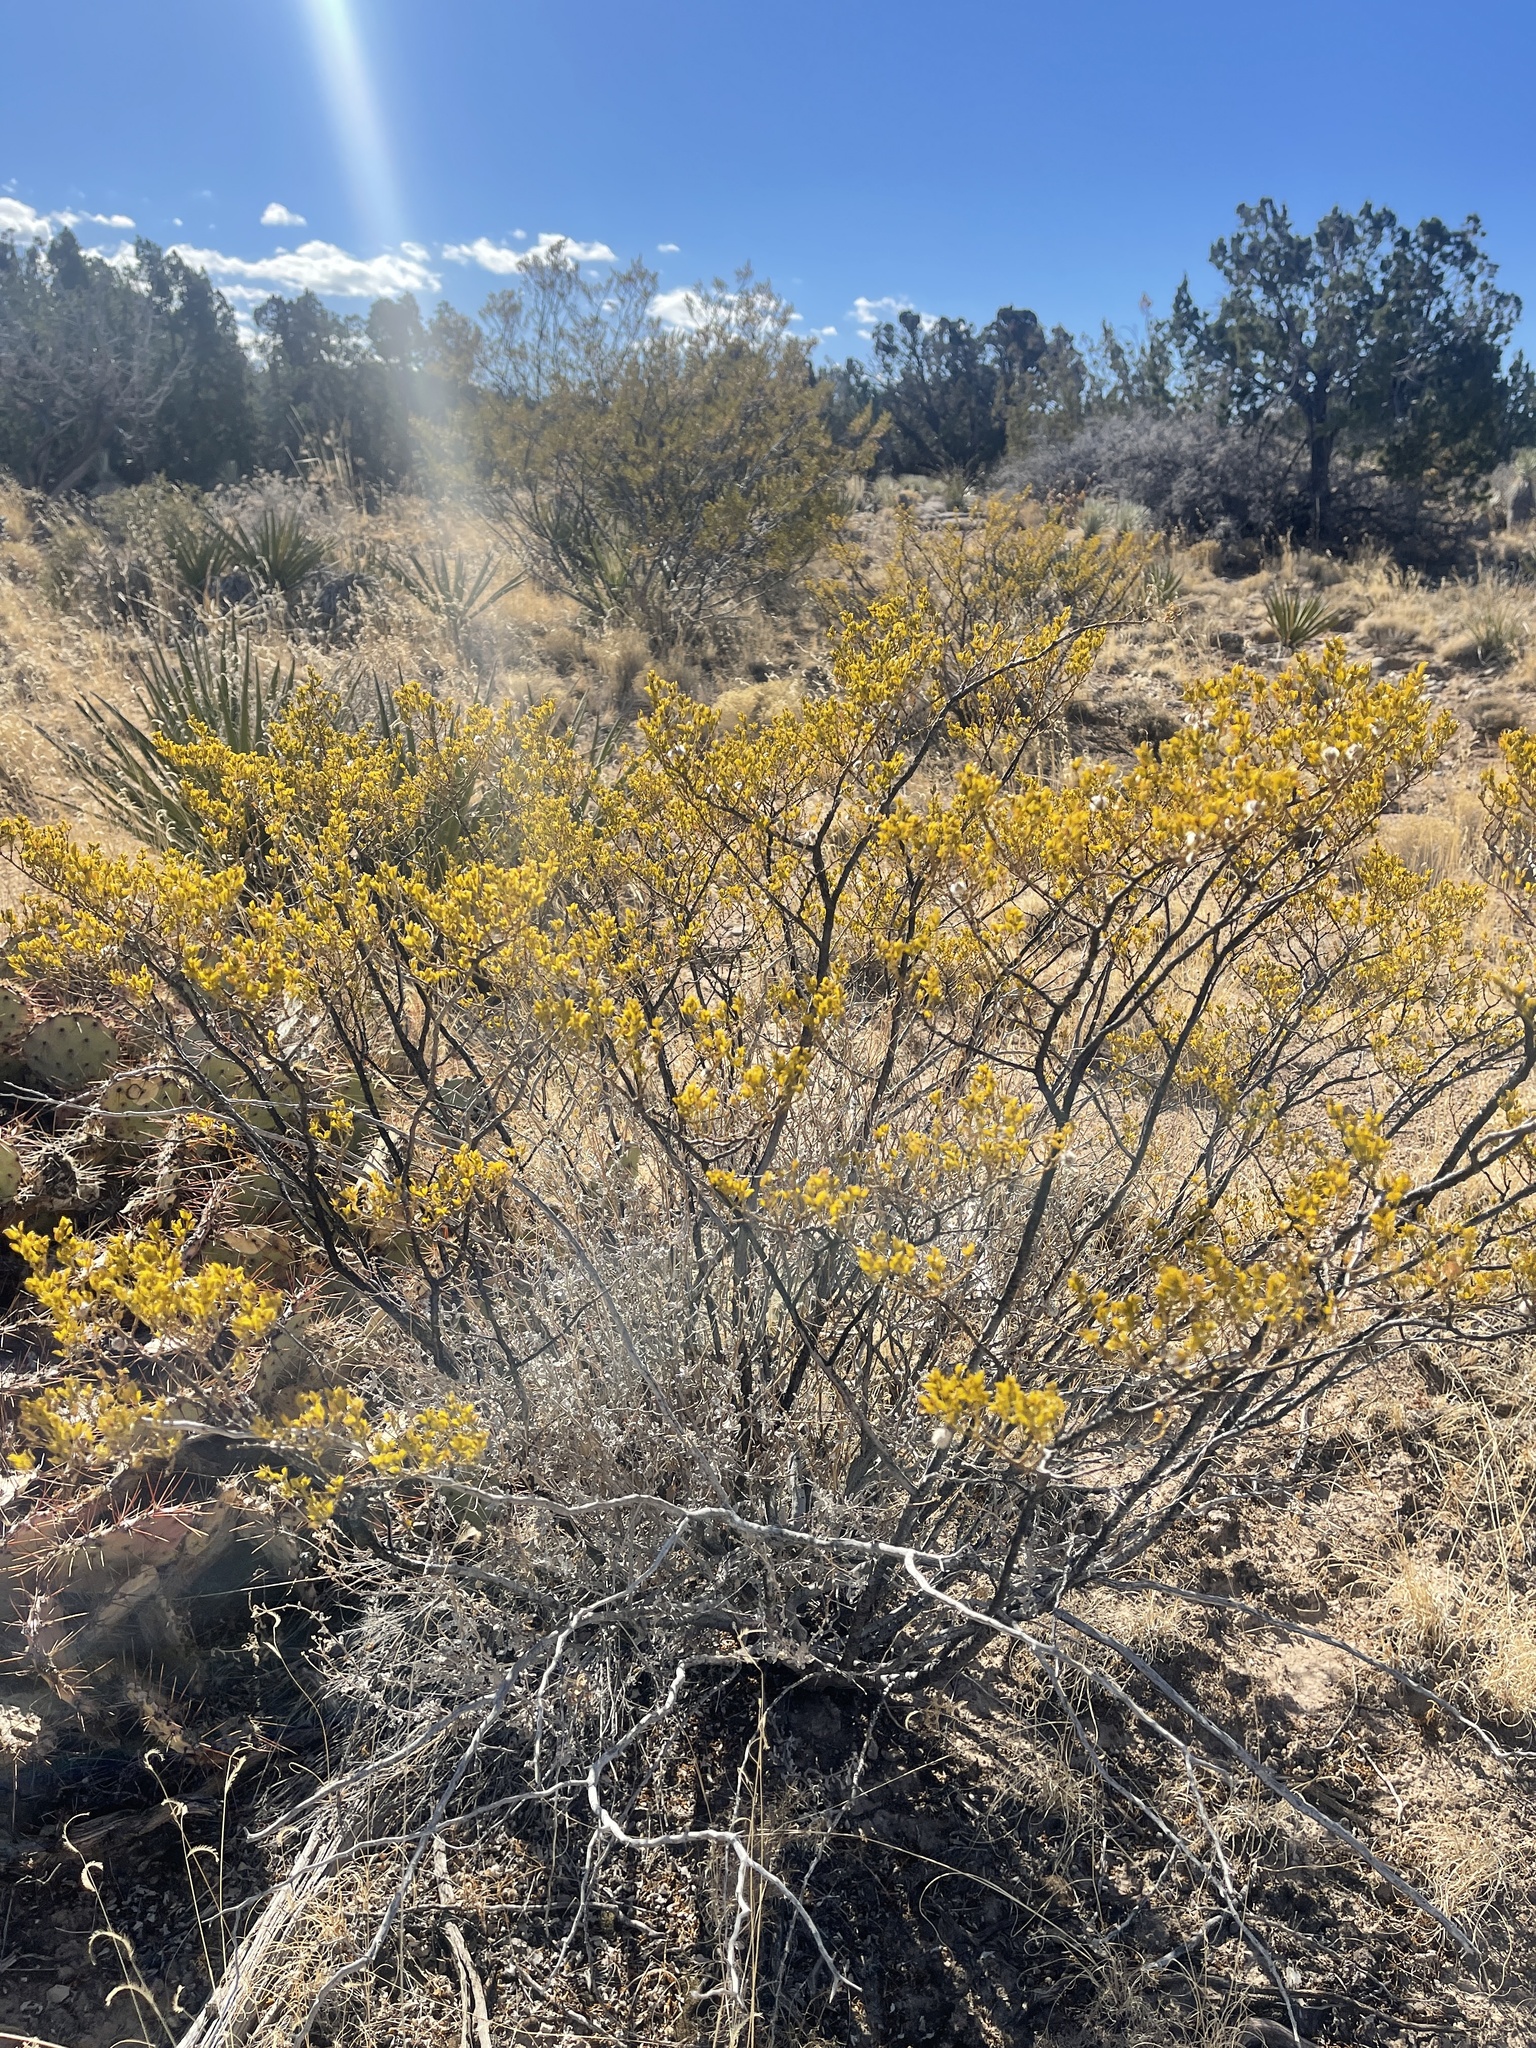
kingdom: Plantae
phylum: Tracheophyta
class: Magnoliopsida
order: Zygophyllales
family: Zygophyllaceae
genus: Larrea
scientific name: Larrea tridentata
